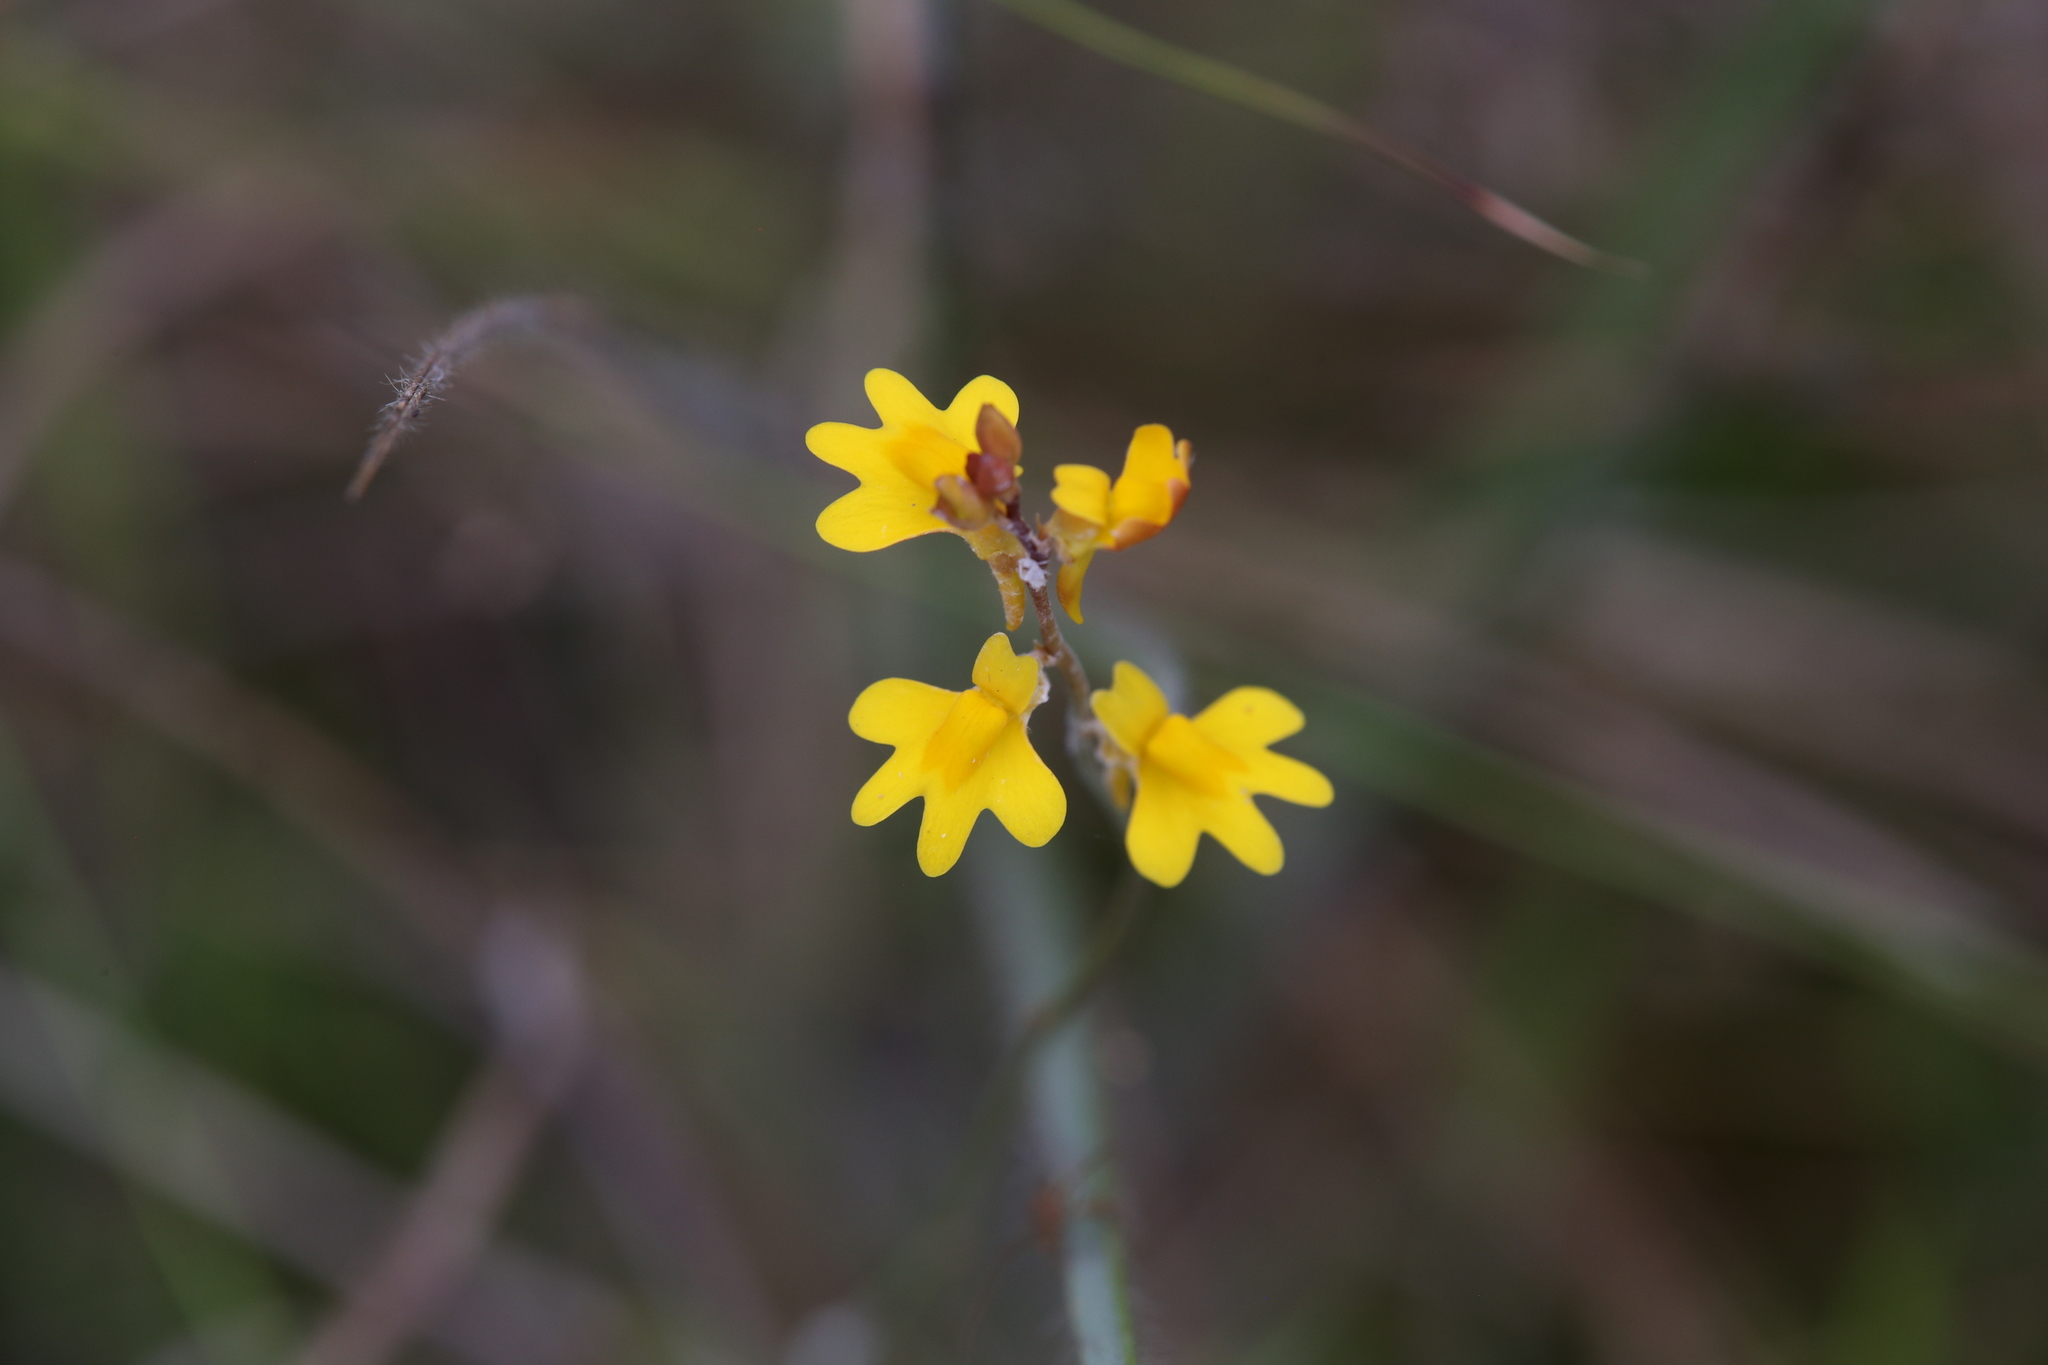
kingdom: Plantae
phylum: Tracheophyta
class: Magnoliopsida
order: Lamiales
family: Lentibulariaceae
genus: Utricularia
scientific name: Utricularia chrysantha
